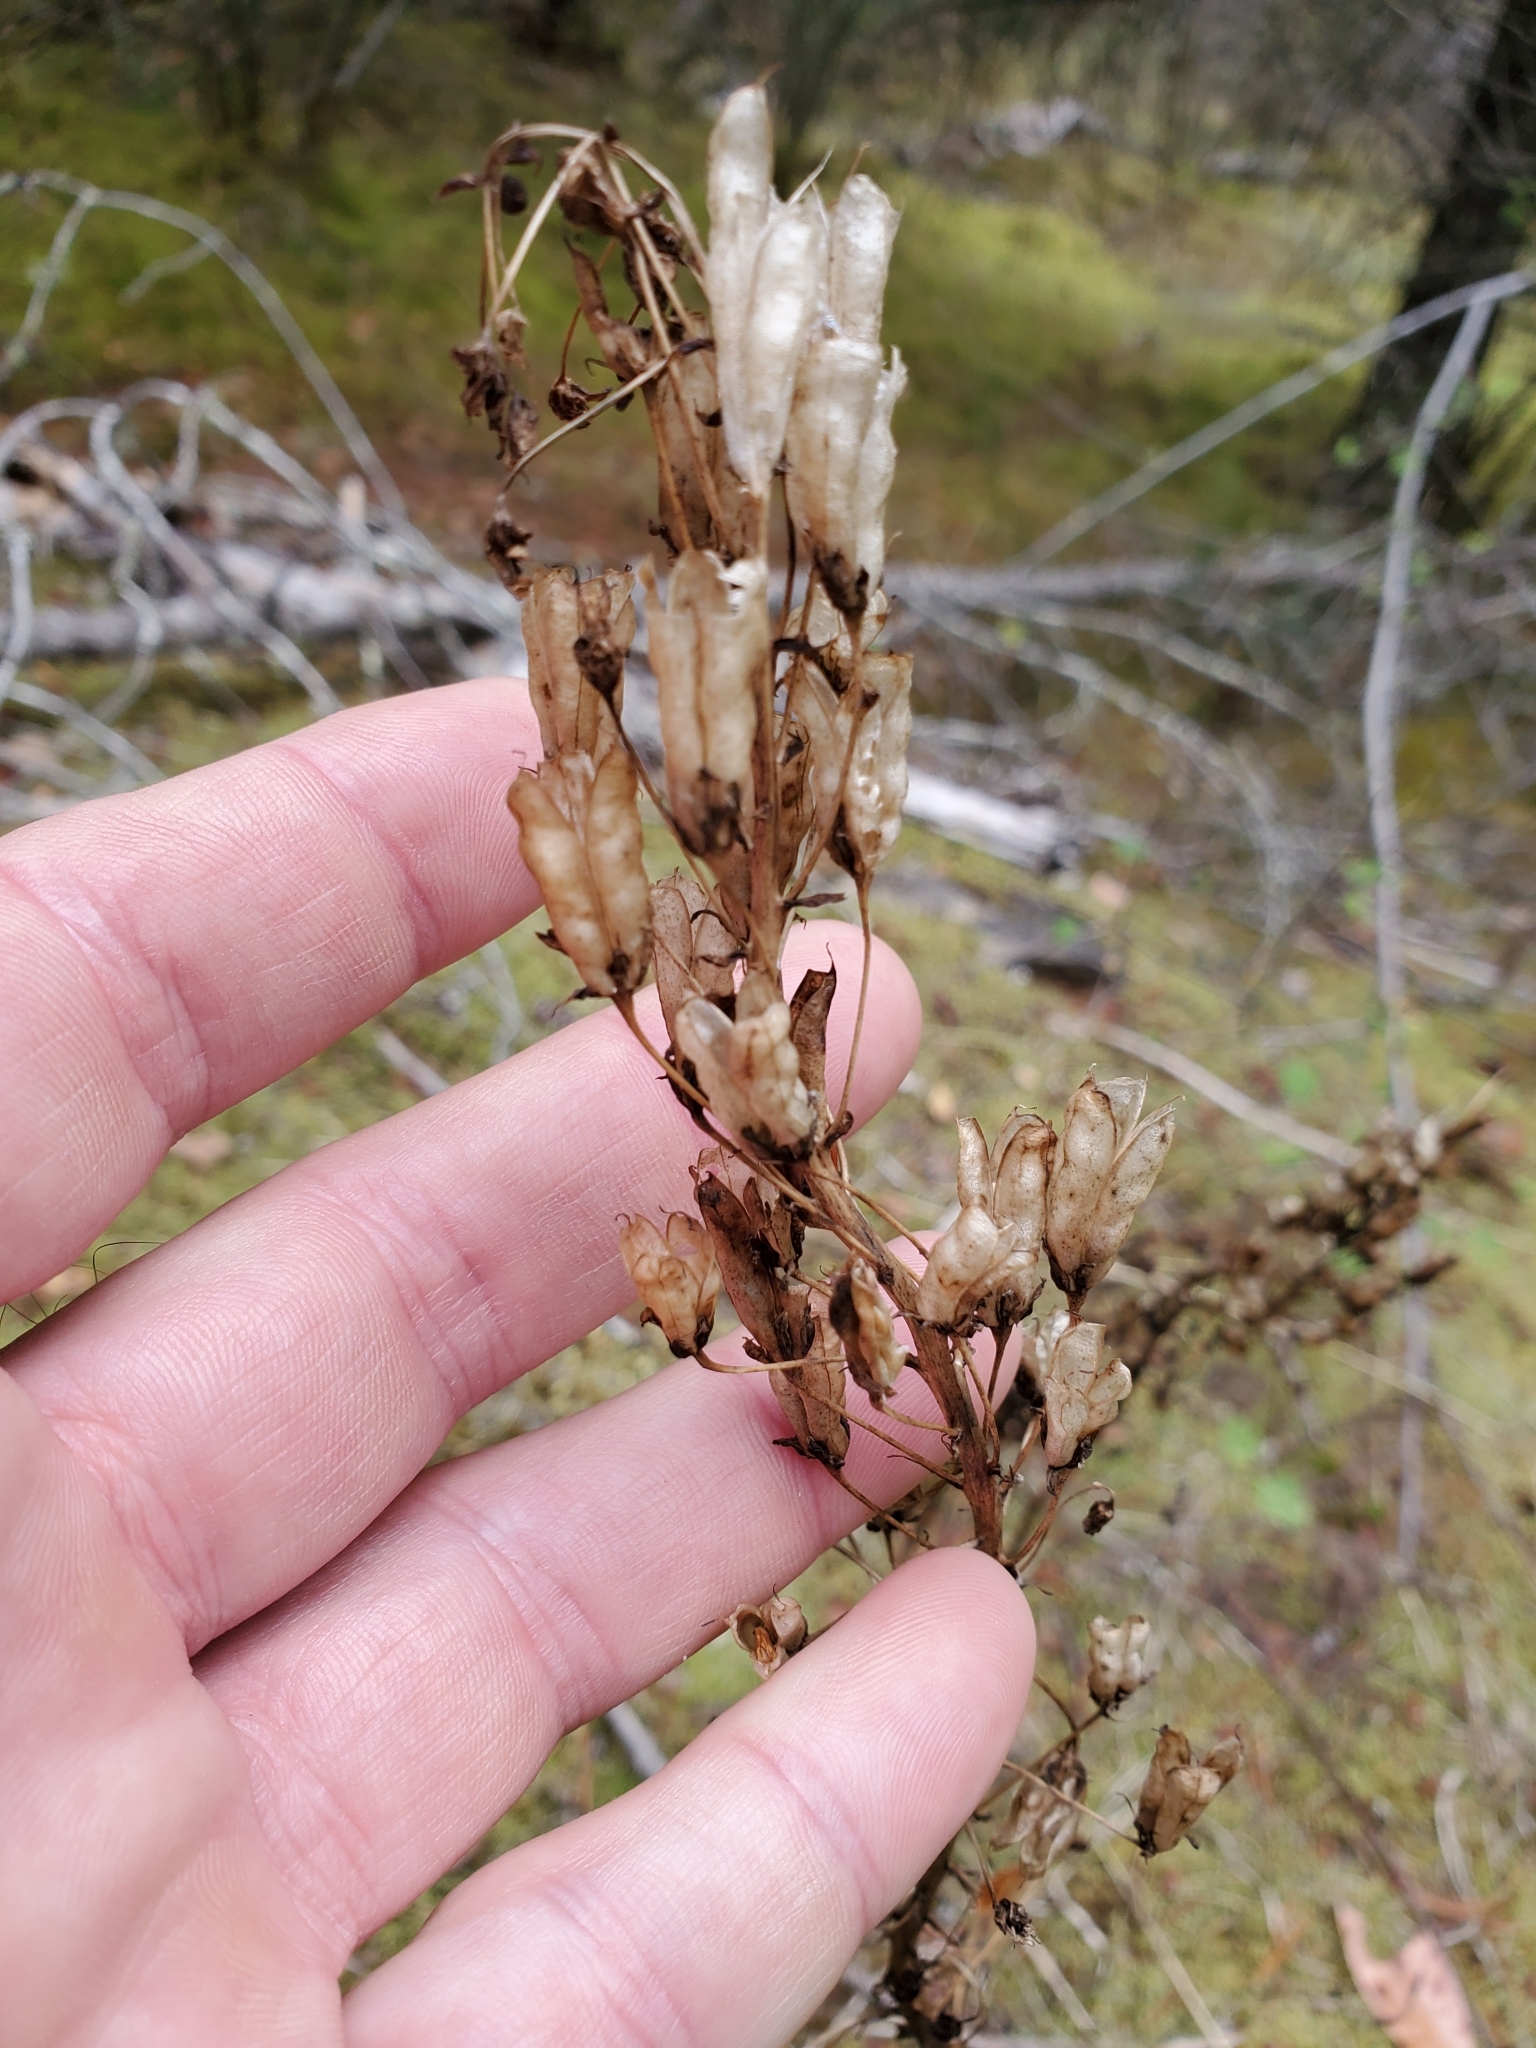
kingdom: Plantae
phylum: Tracheophyta
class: Liliopsida
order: Liliales
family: Melanthiaceae
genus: Toxicoscordion
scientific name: Toxicoscordion venenosum
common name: Meadow death camas
